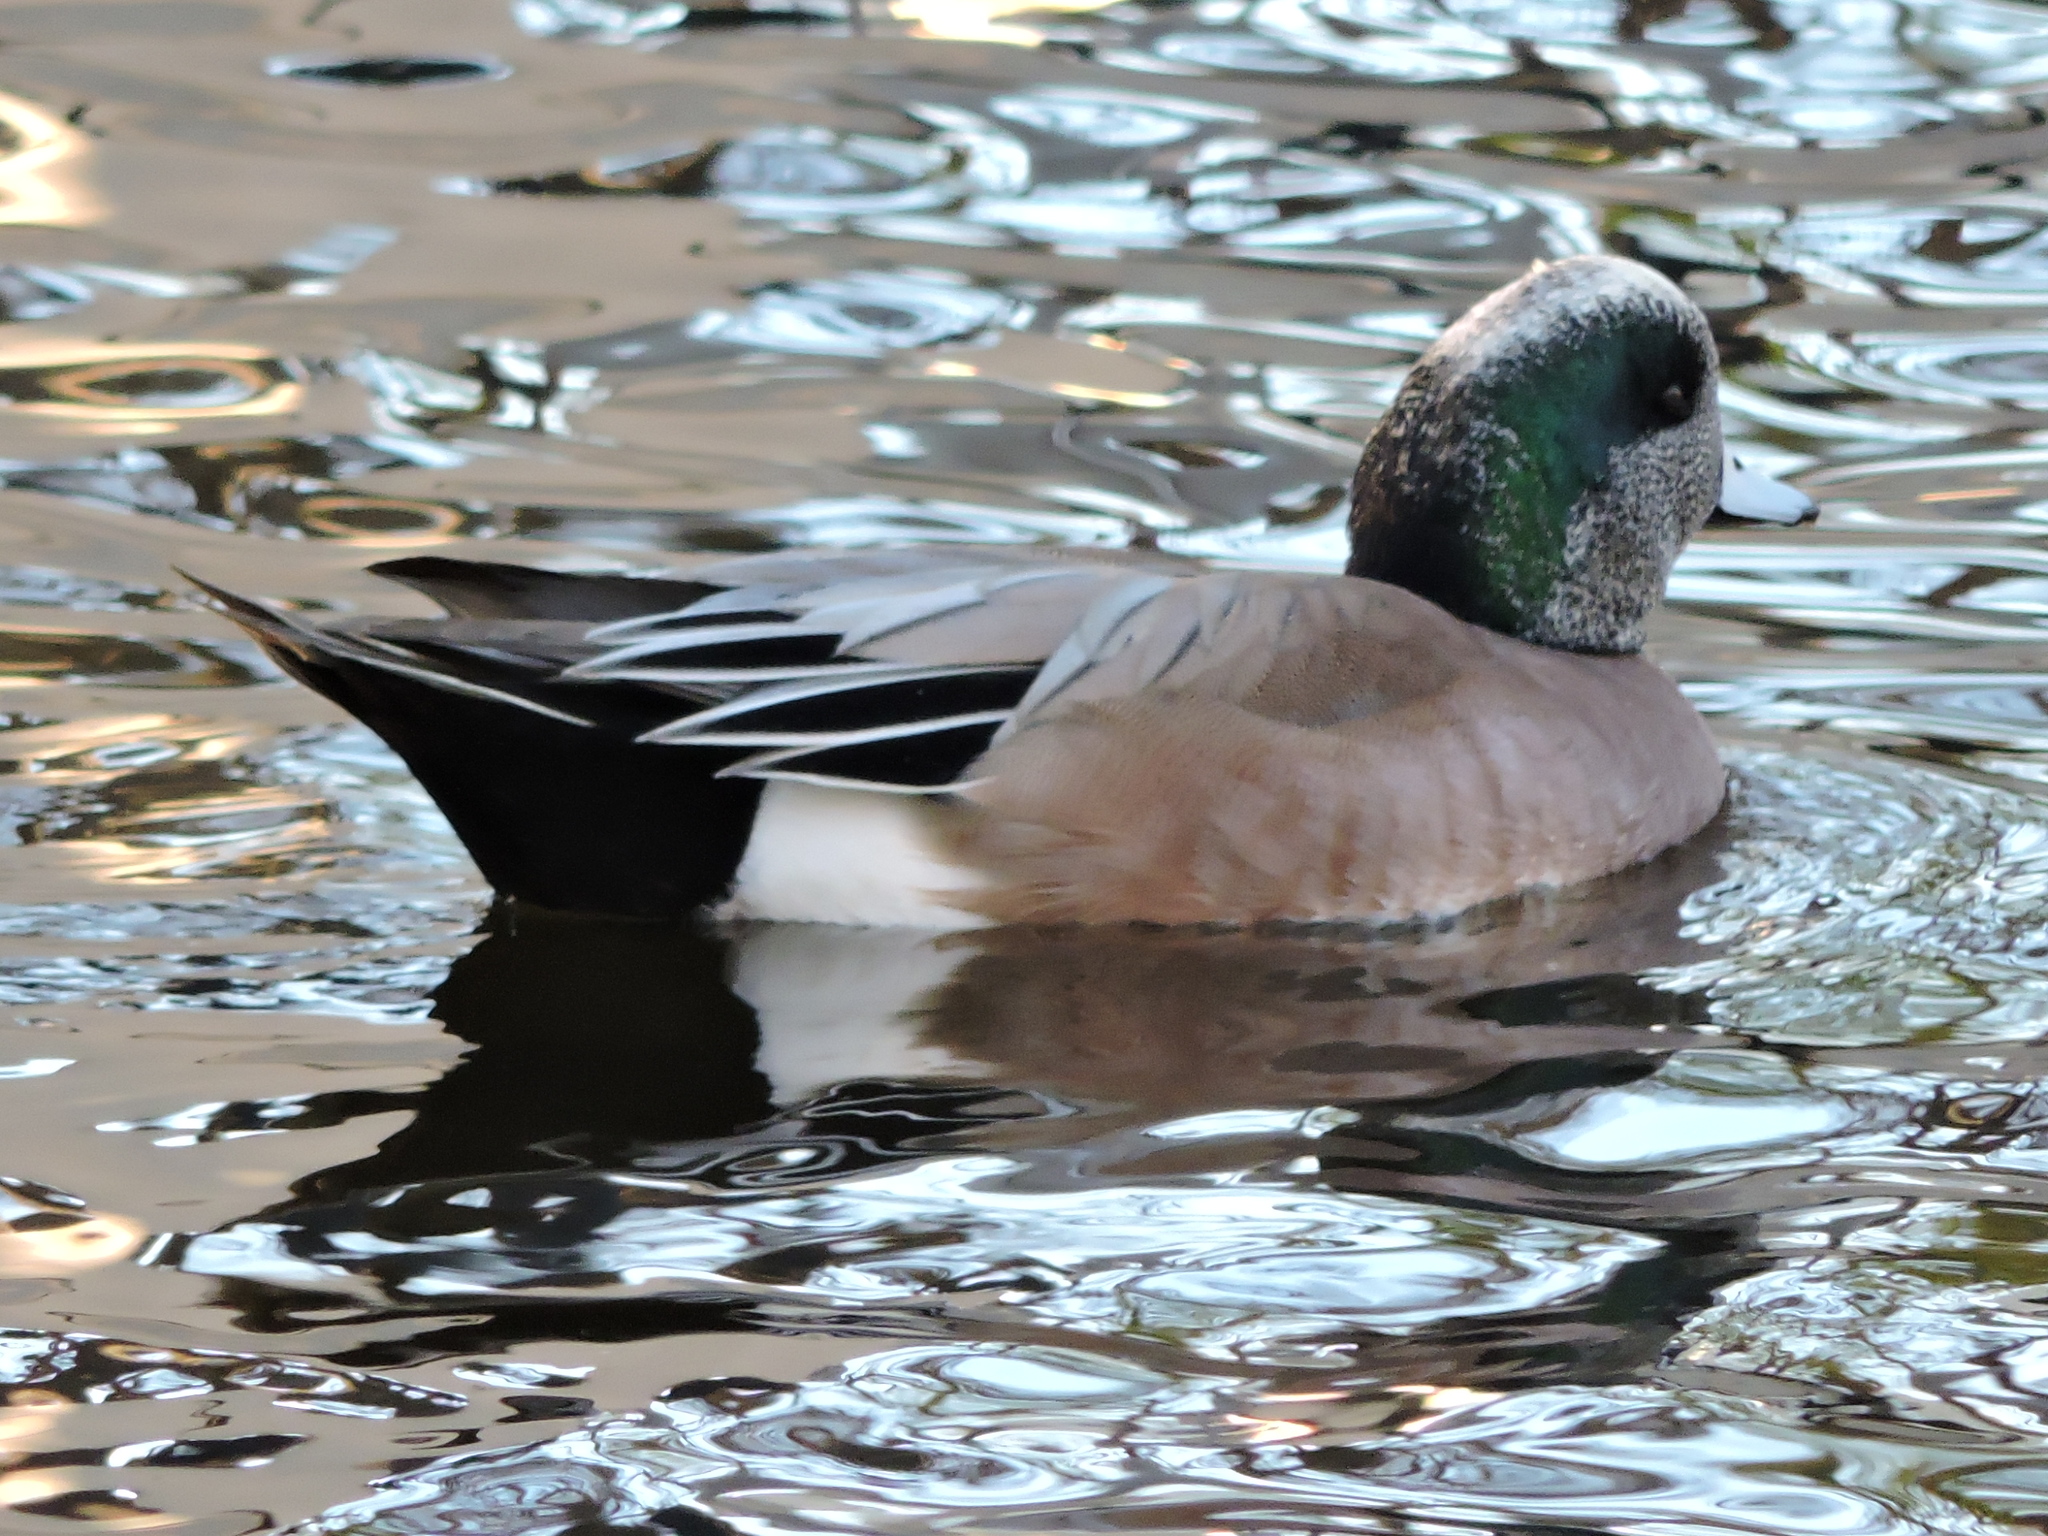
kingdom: Animalia
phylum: Chordata
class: Aves
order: Anseriformes
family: Anatidae
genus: Mareca
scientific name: Mareca americana
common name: American wigeon
